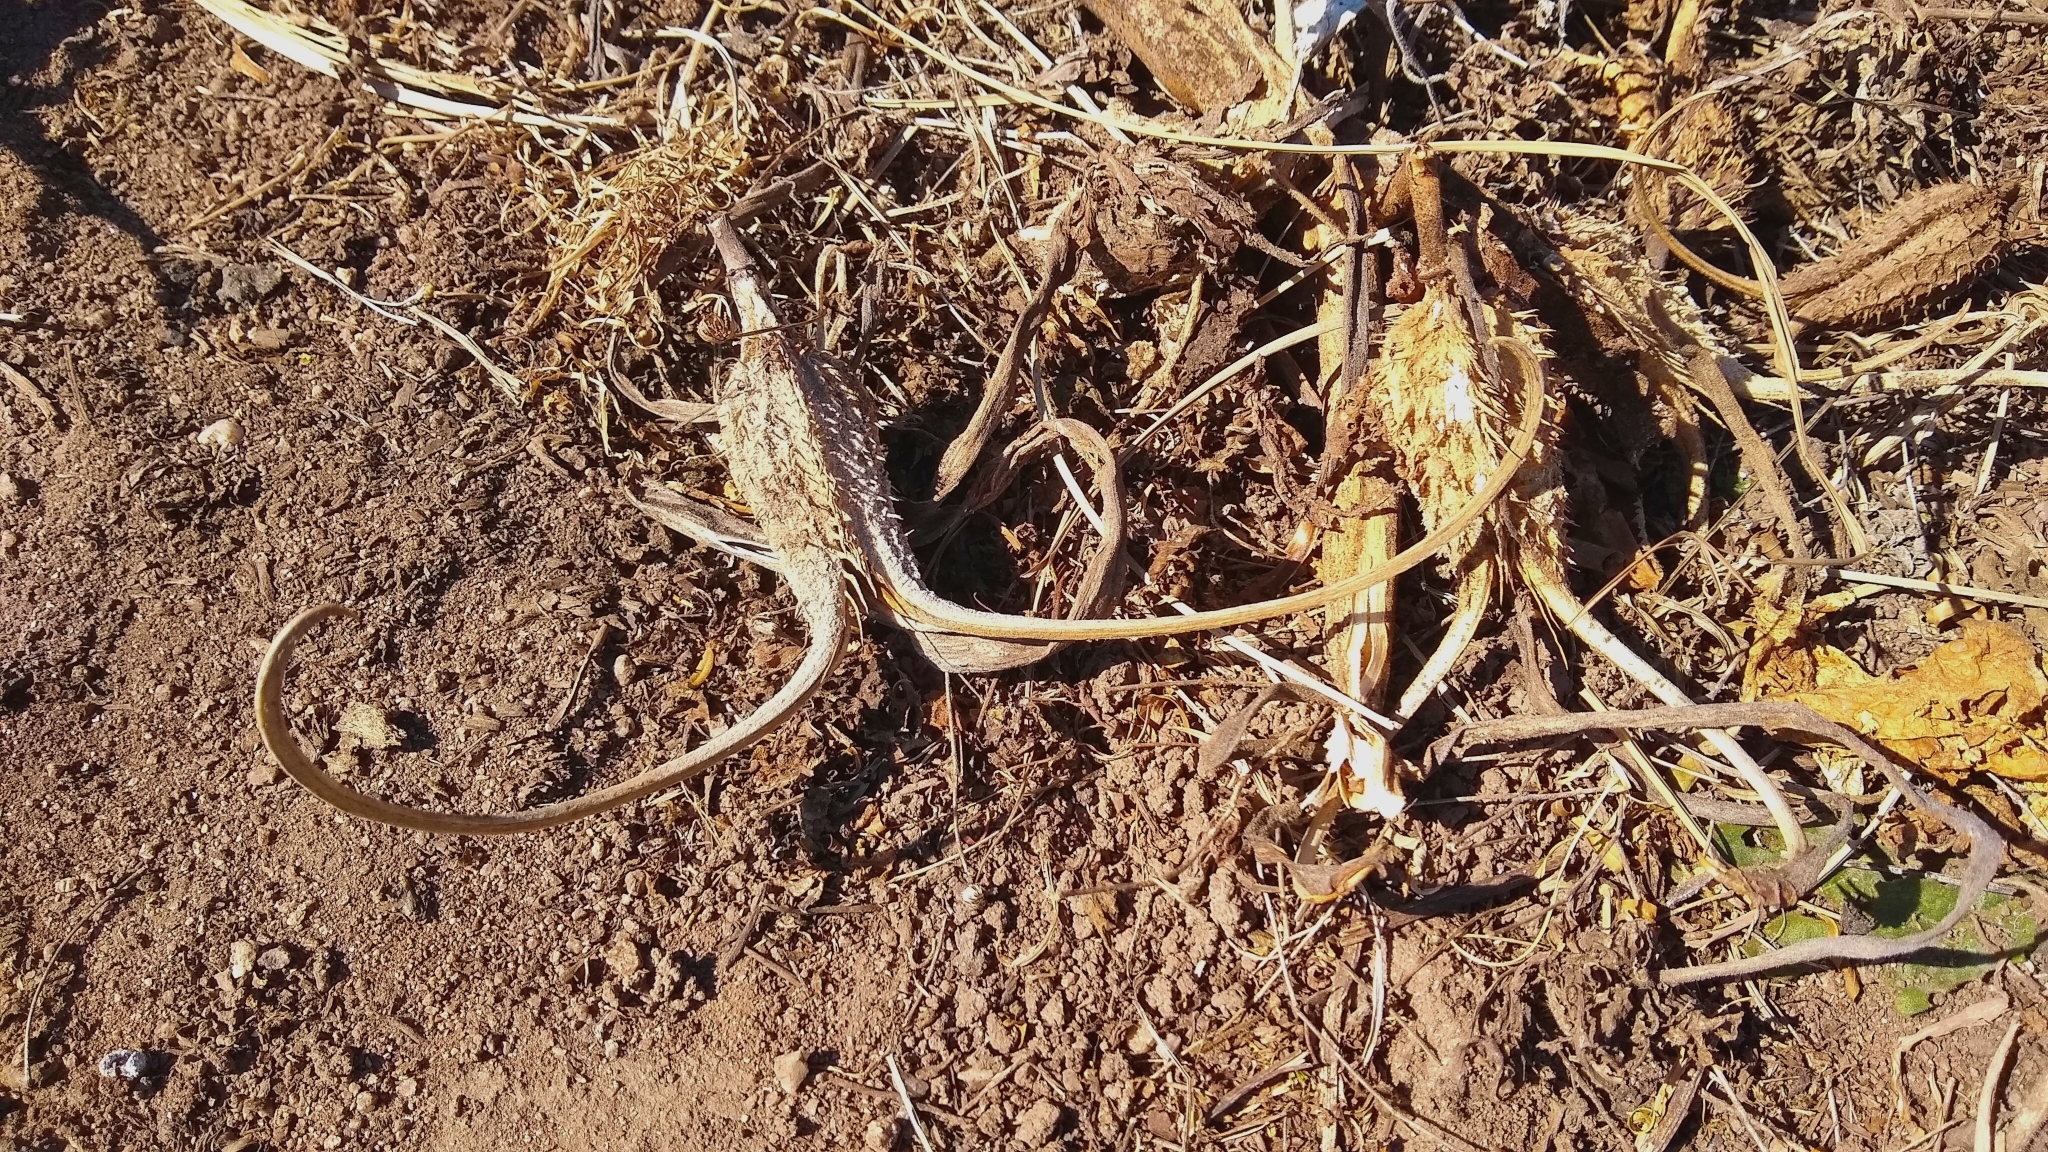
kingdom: Plantae
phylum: Tracheophyta
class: Magnoliopsida
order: Lamiales
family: Martyniaceae
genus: Ibicella
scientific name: Ibicella lutea
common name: Yellow unicorn-plant
